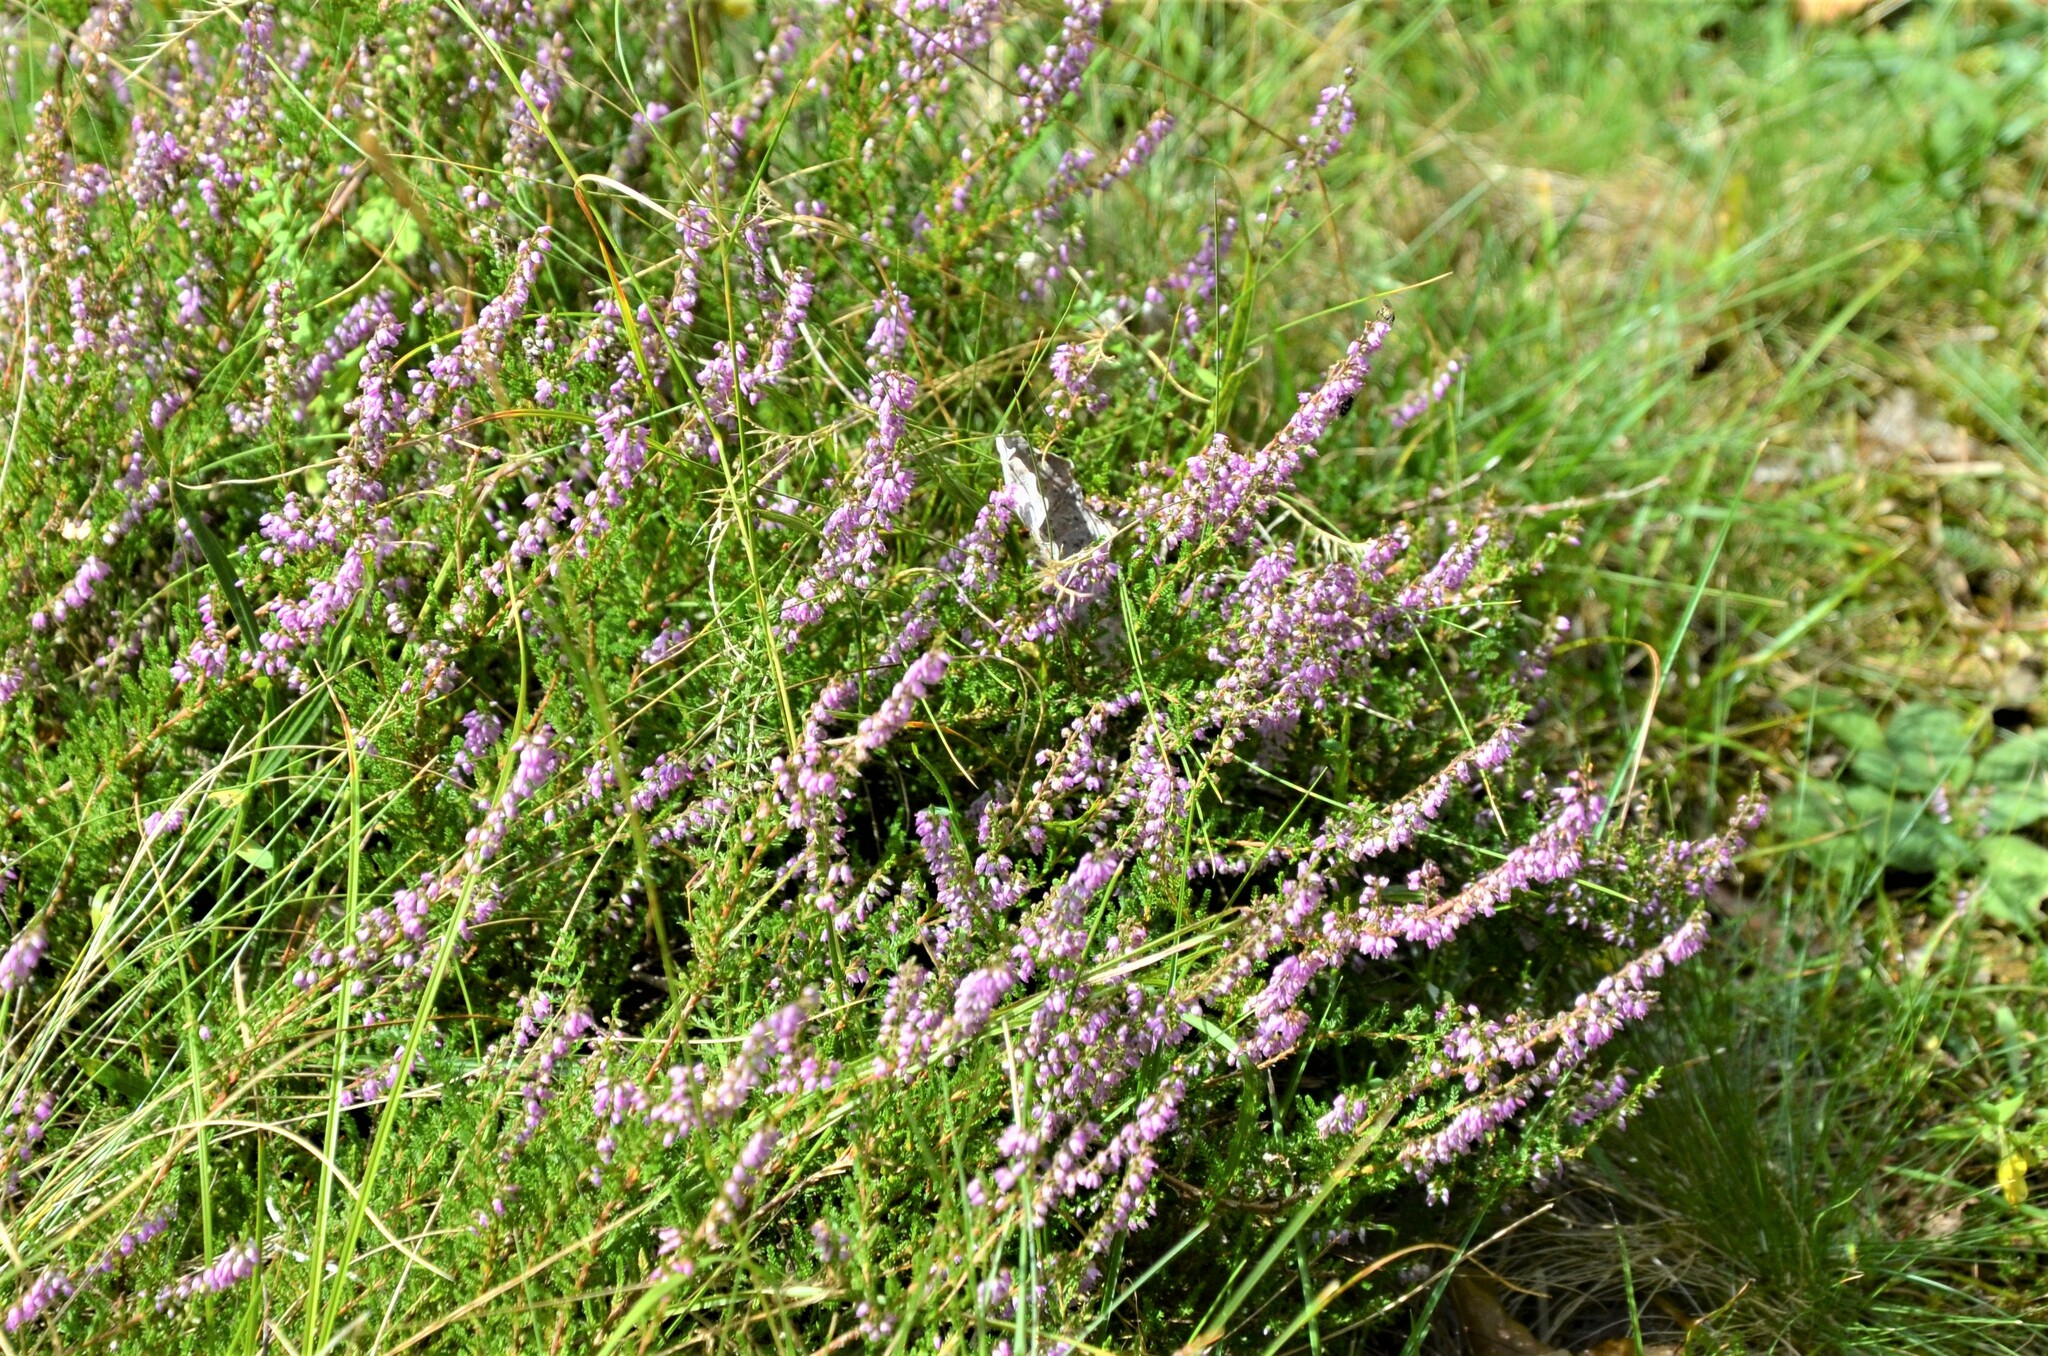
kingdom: Plantae
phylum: Tracheophyta
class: Magnoliopsida
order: Ericales
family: Ericaceae
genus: Calluna
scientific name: Calluna vulgaris
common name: Heather
